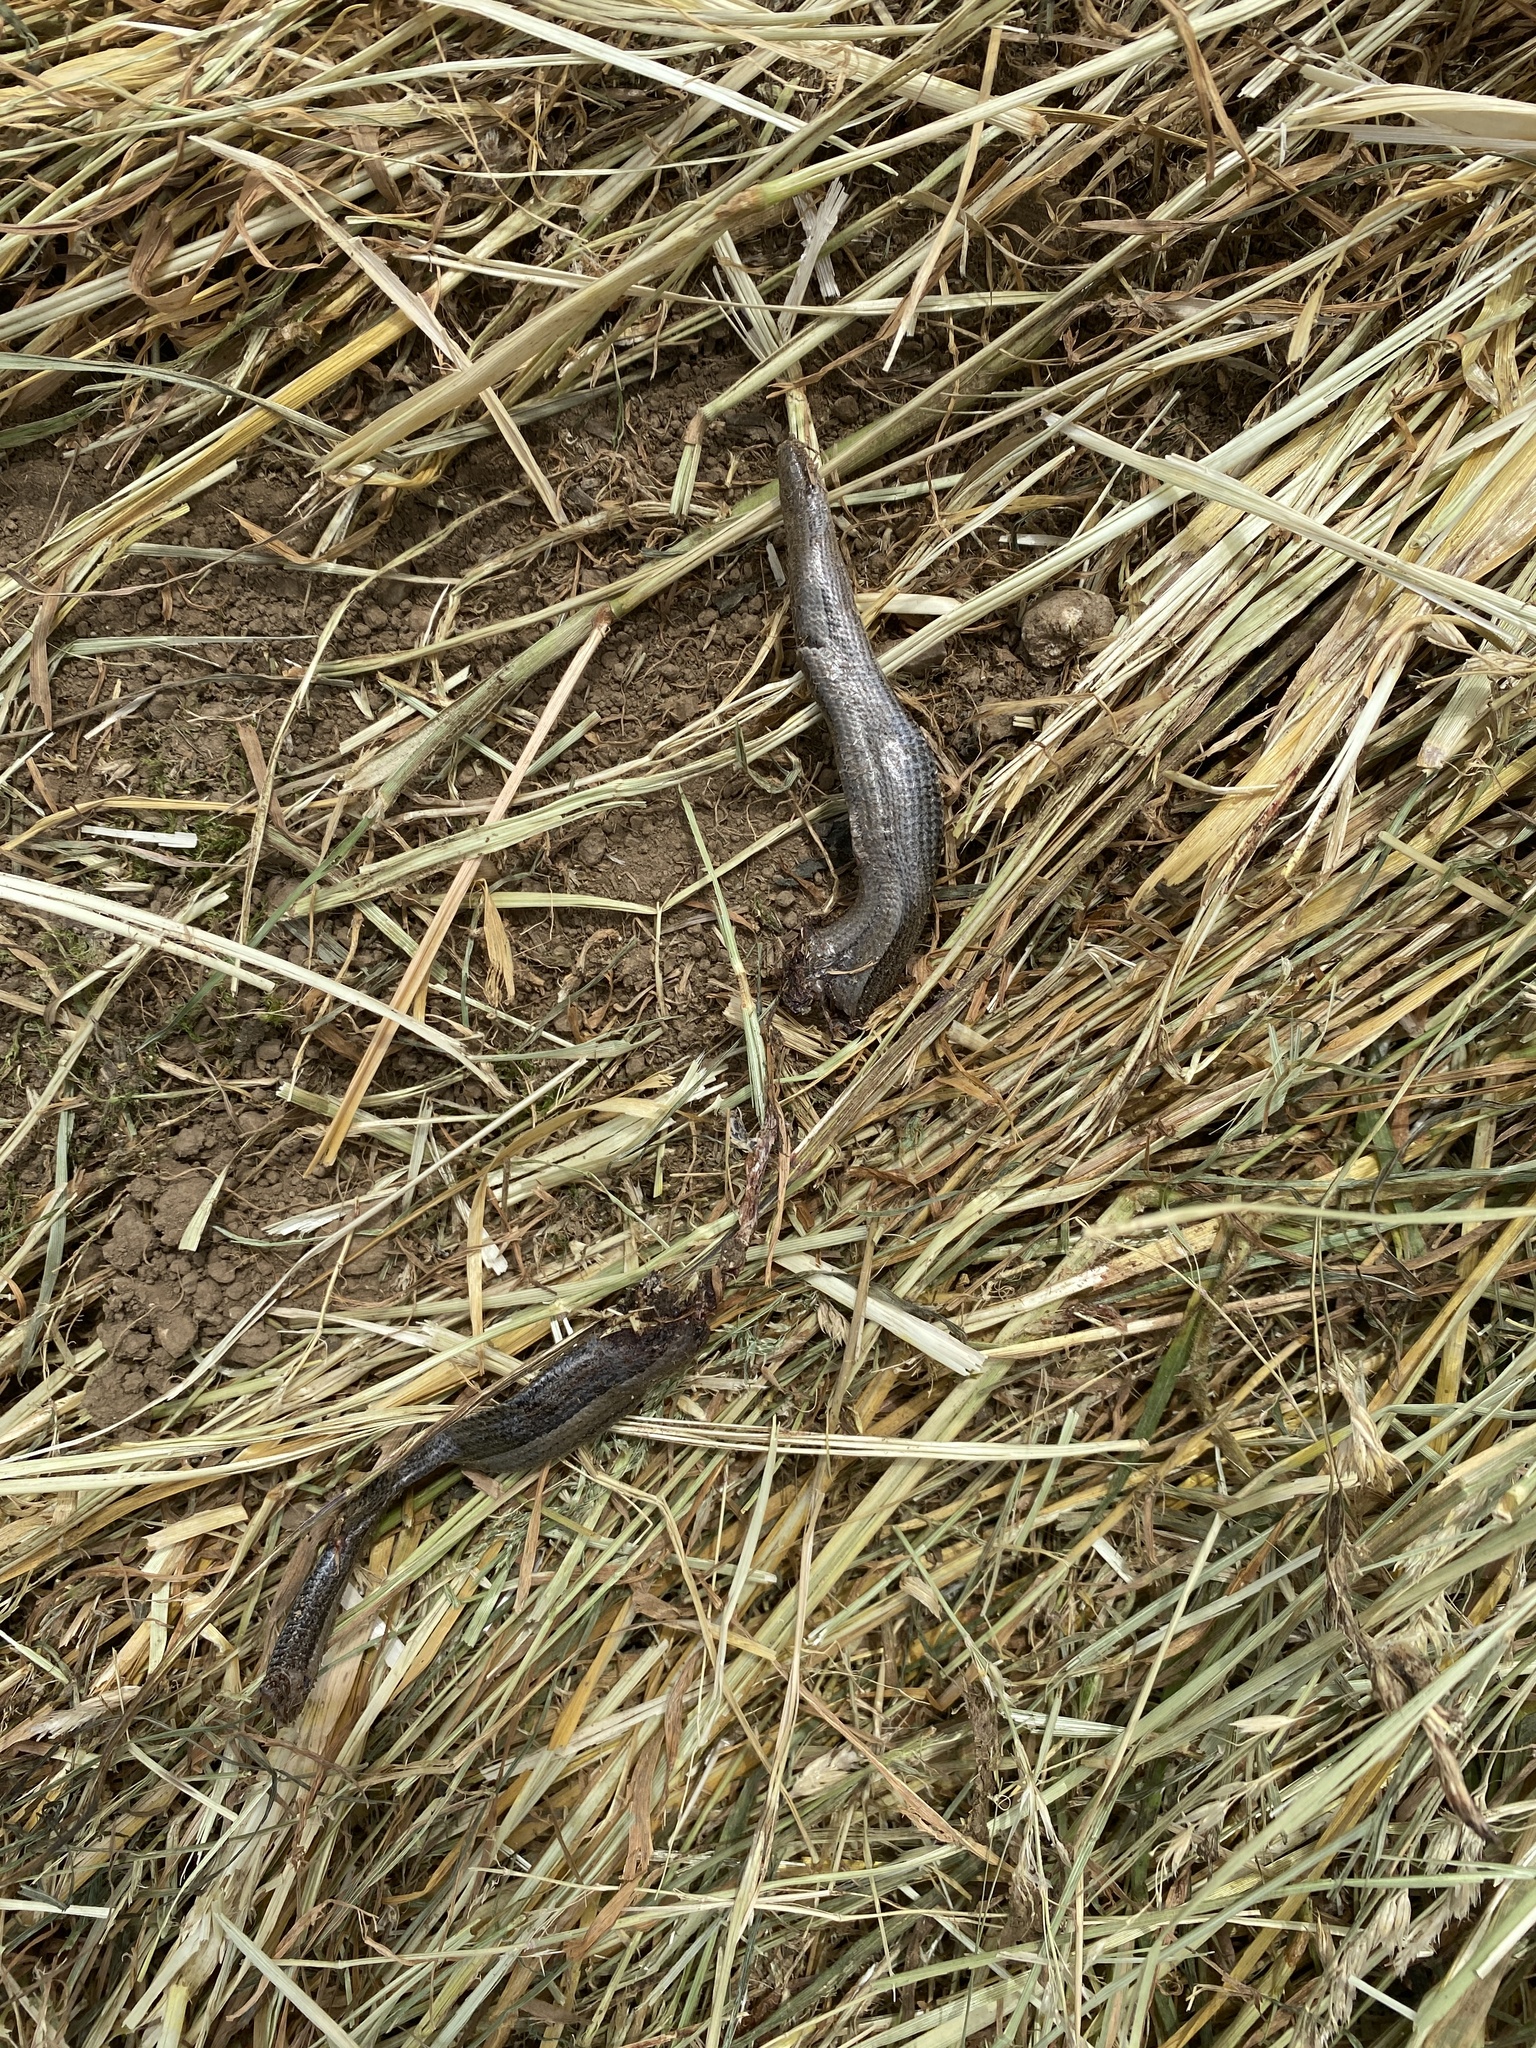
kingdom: Animalia
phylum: Chordata
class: Squamata
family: Anguidae
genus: Anguis
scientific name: Anguis fragilis
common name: Slow worm
